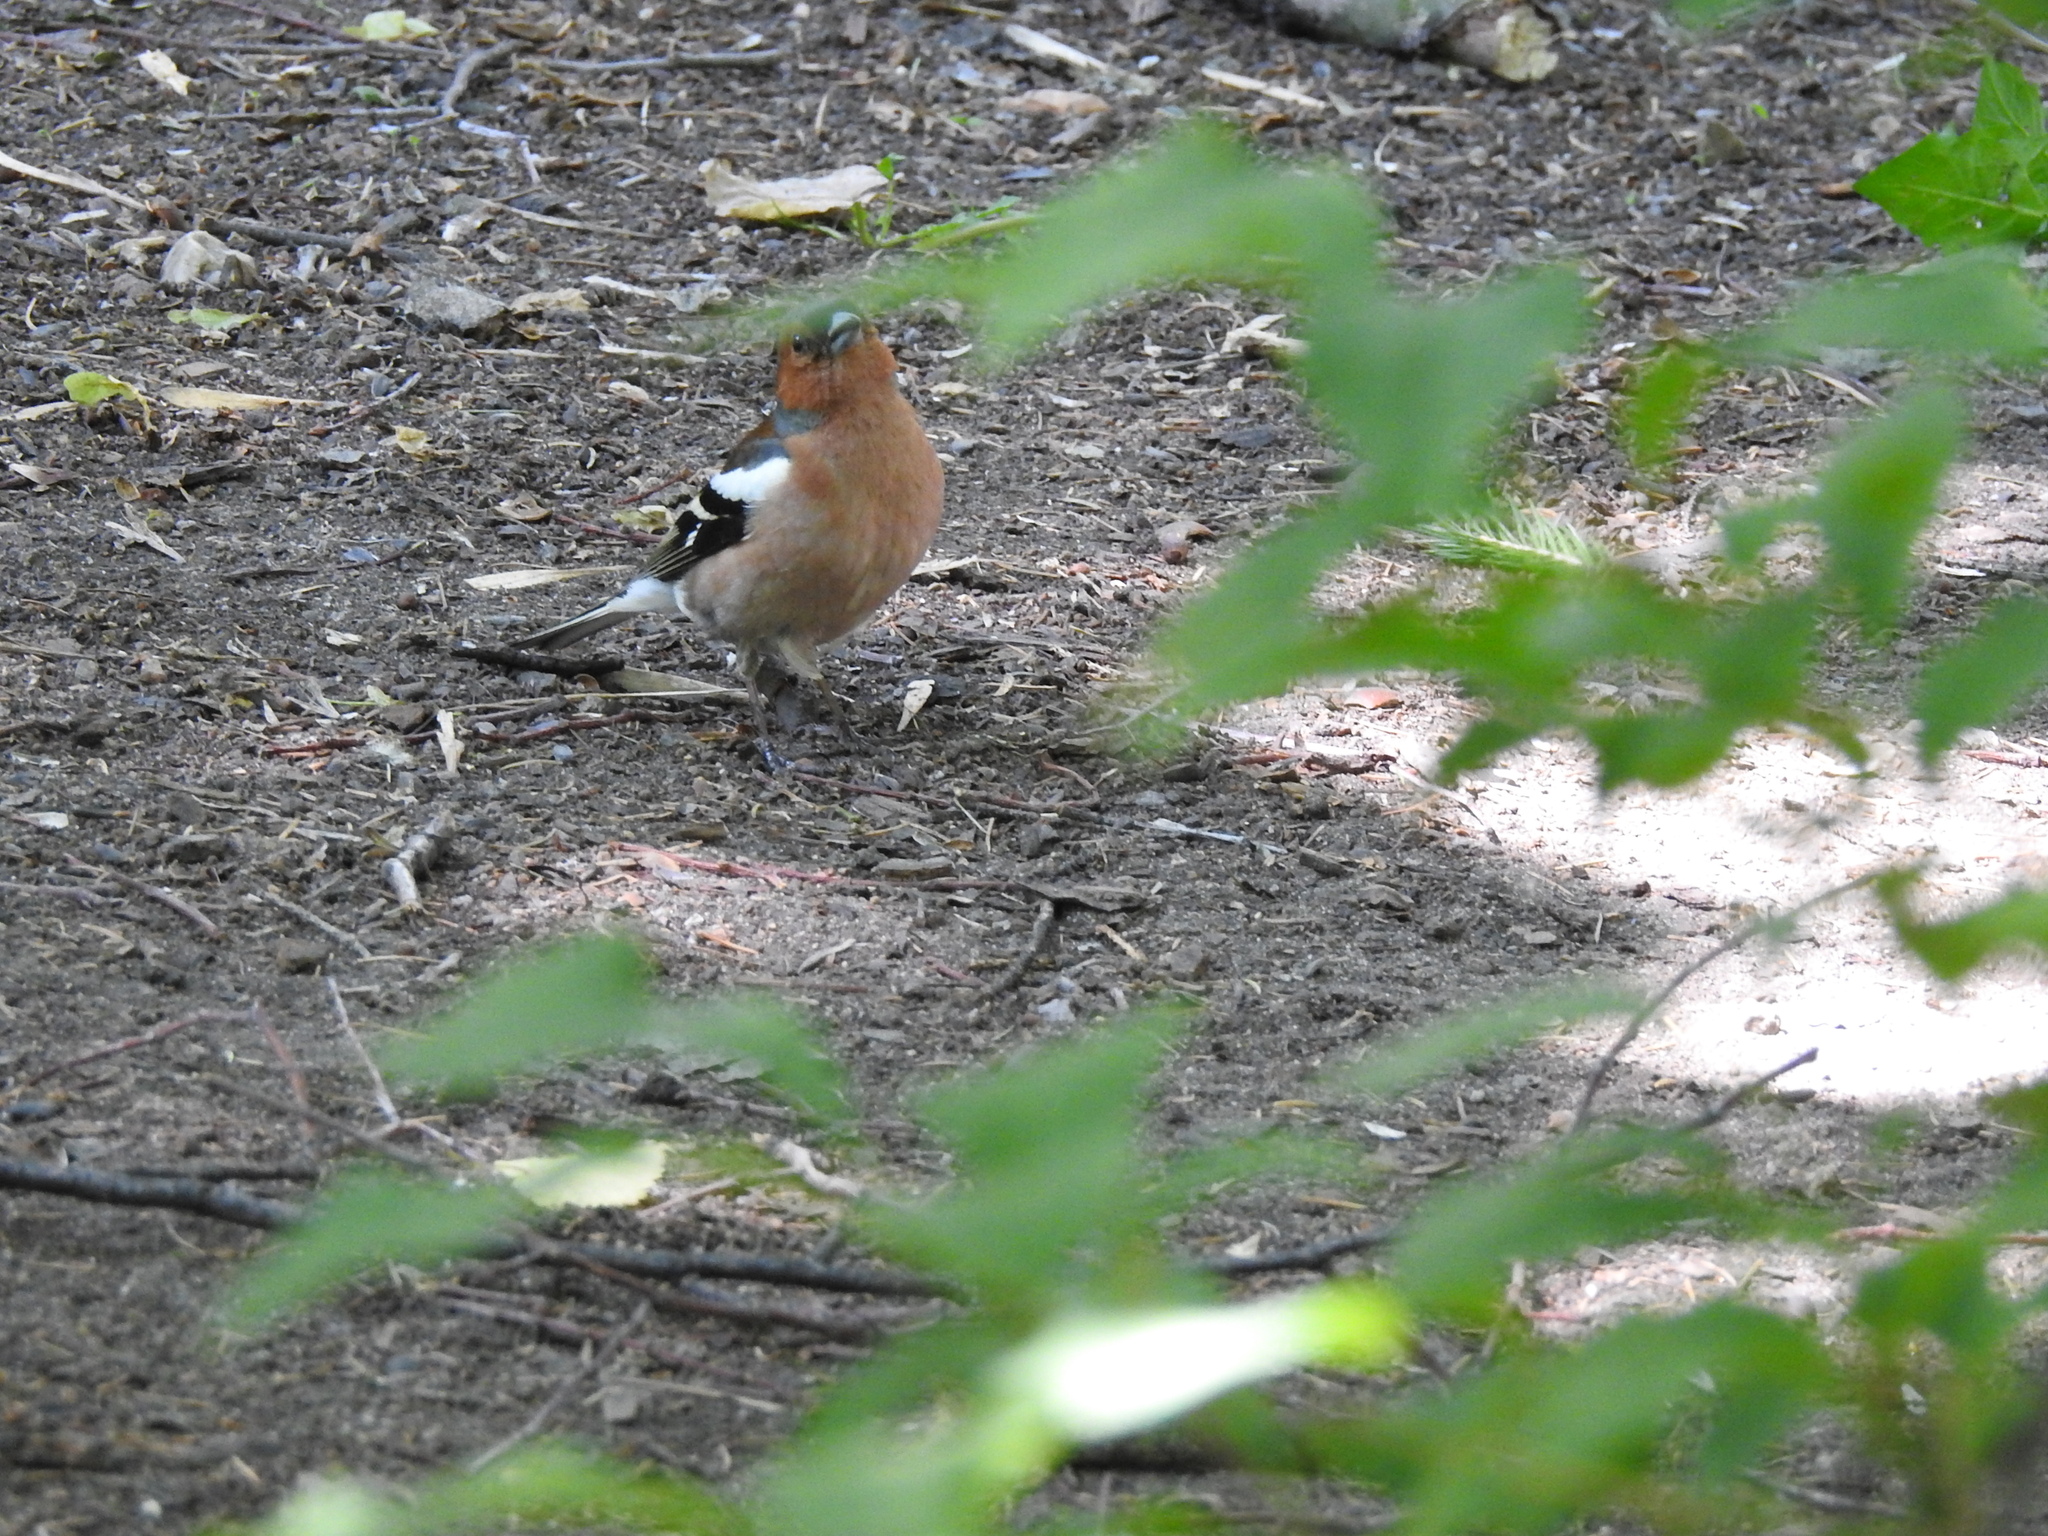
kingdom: Animalia
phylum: Chordata
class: Aves
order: Passeriformes
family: Fringillidae
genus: Fringilla
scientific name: Fringilla coelebs
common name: Common chaffinch
